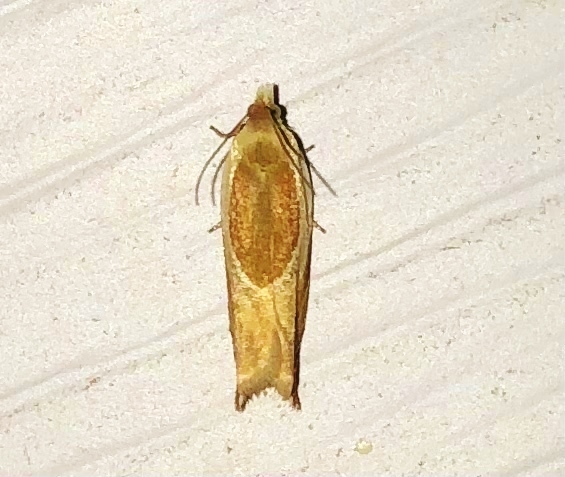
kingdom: Animalia
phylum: Arthropoda
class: Insecta
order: Lepidoptera
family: Tortricidae
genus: Ancylis
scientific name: Ancylis burgessiana
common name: Oak leaffolder moth
